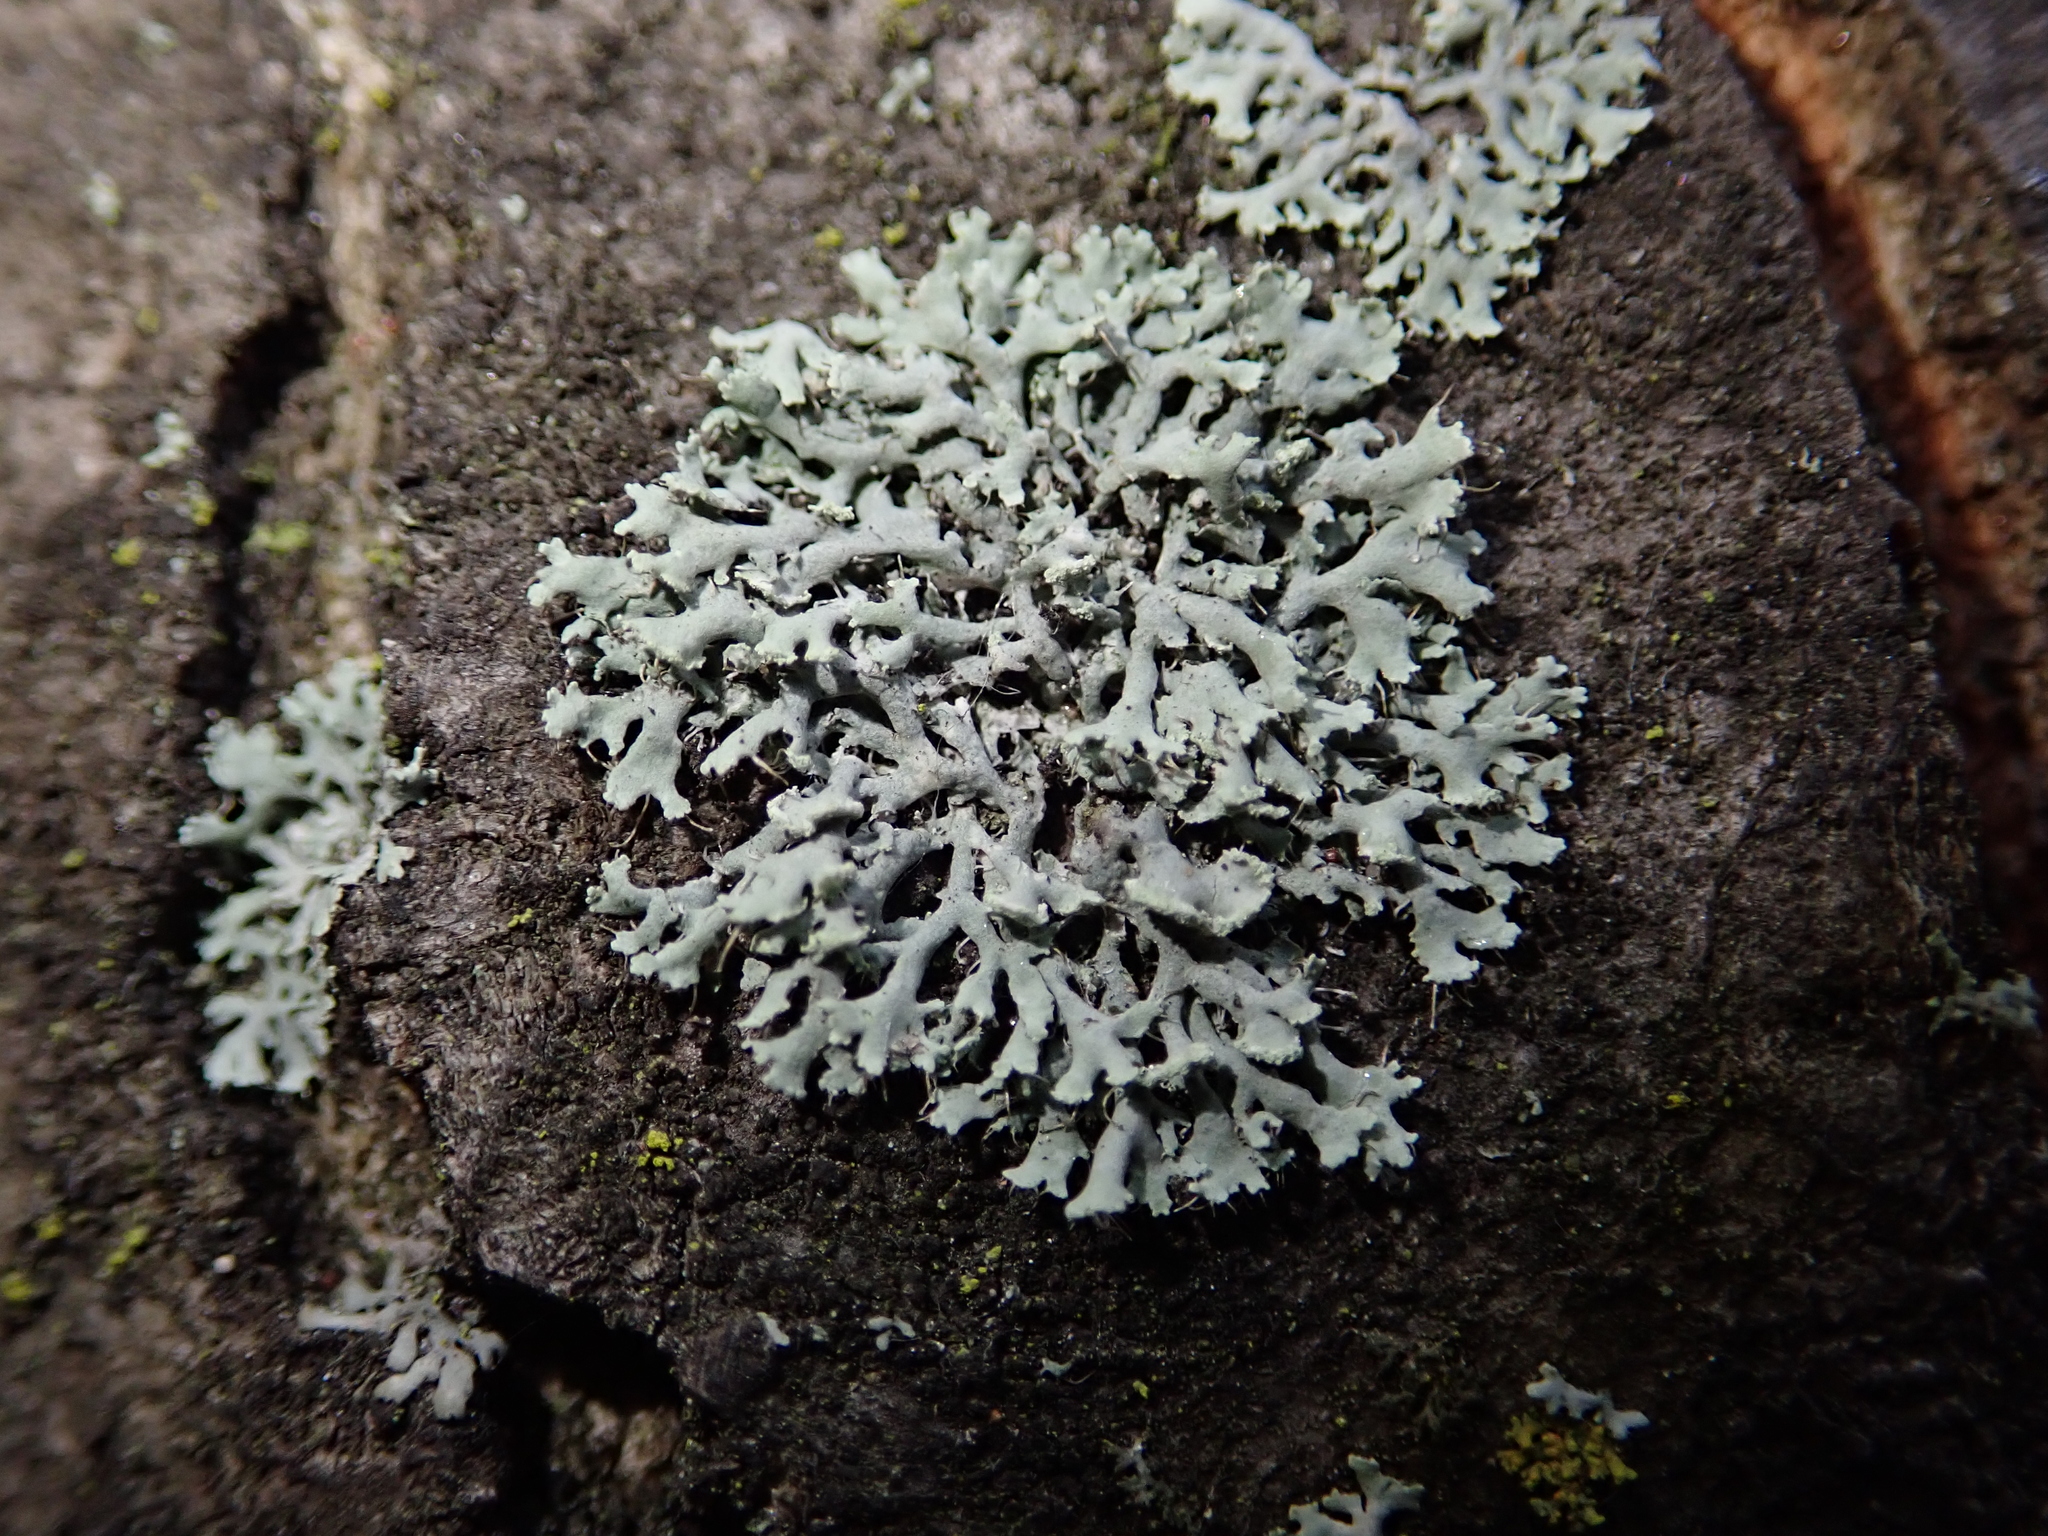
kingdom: Fungi
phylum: Ascomycota
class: Lecanoromycetes
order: Caliciales
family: Physciaceae
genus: Physcia
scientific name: Physcia tenella
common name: Fringed rosette lichen
